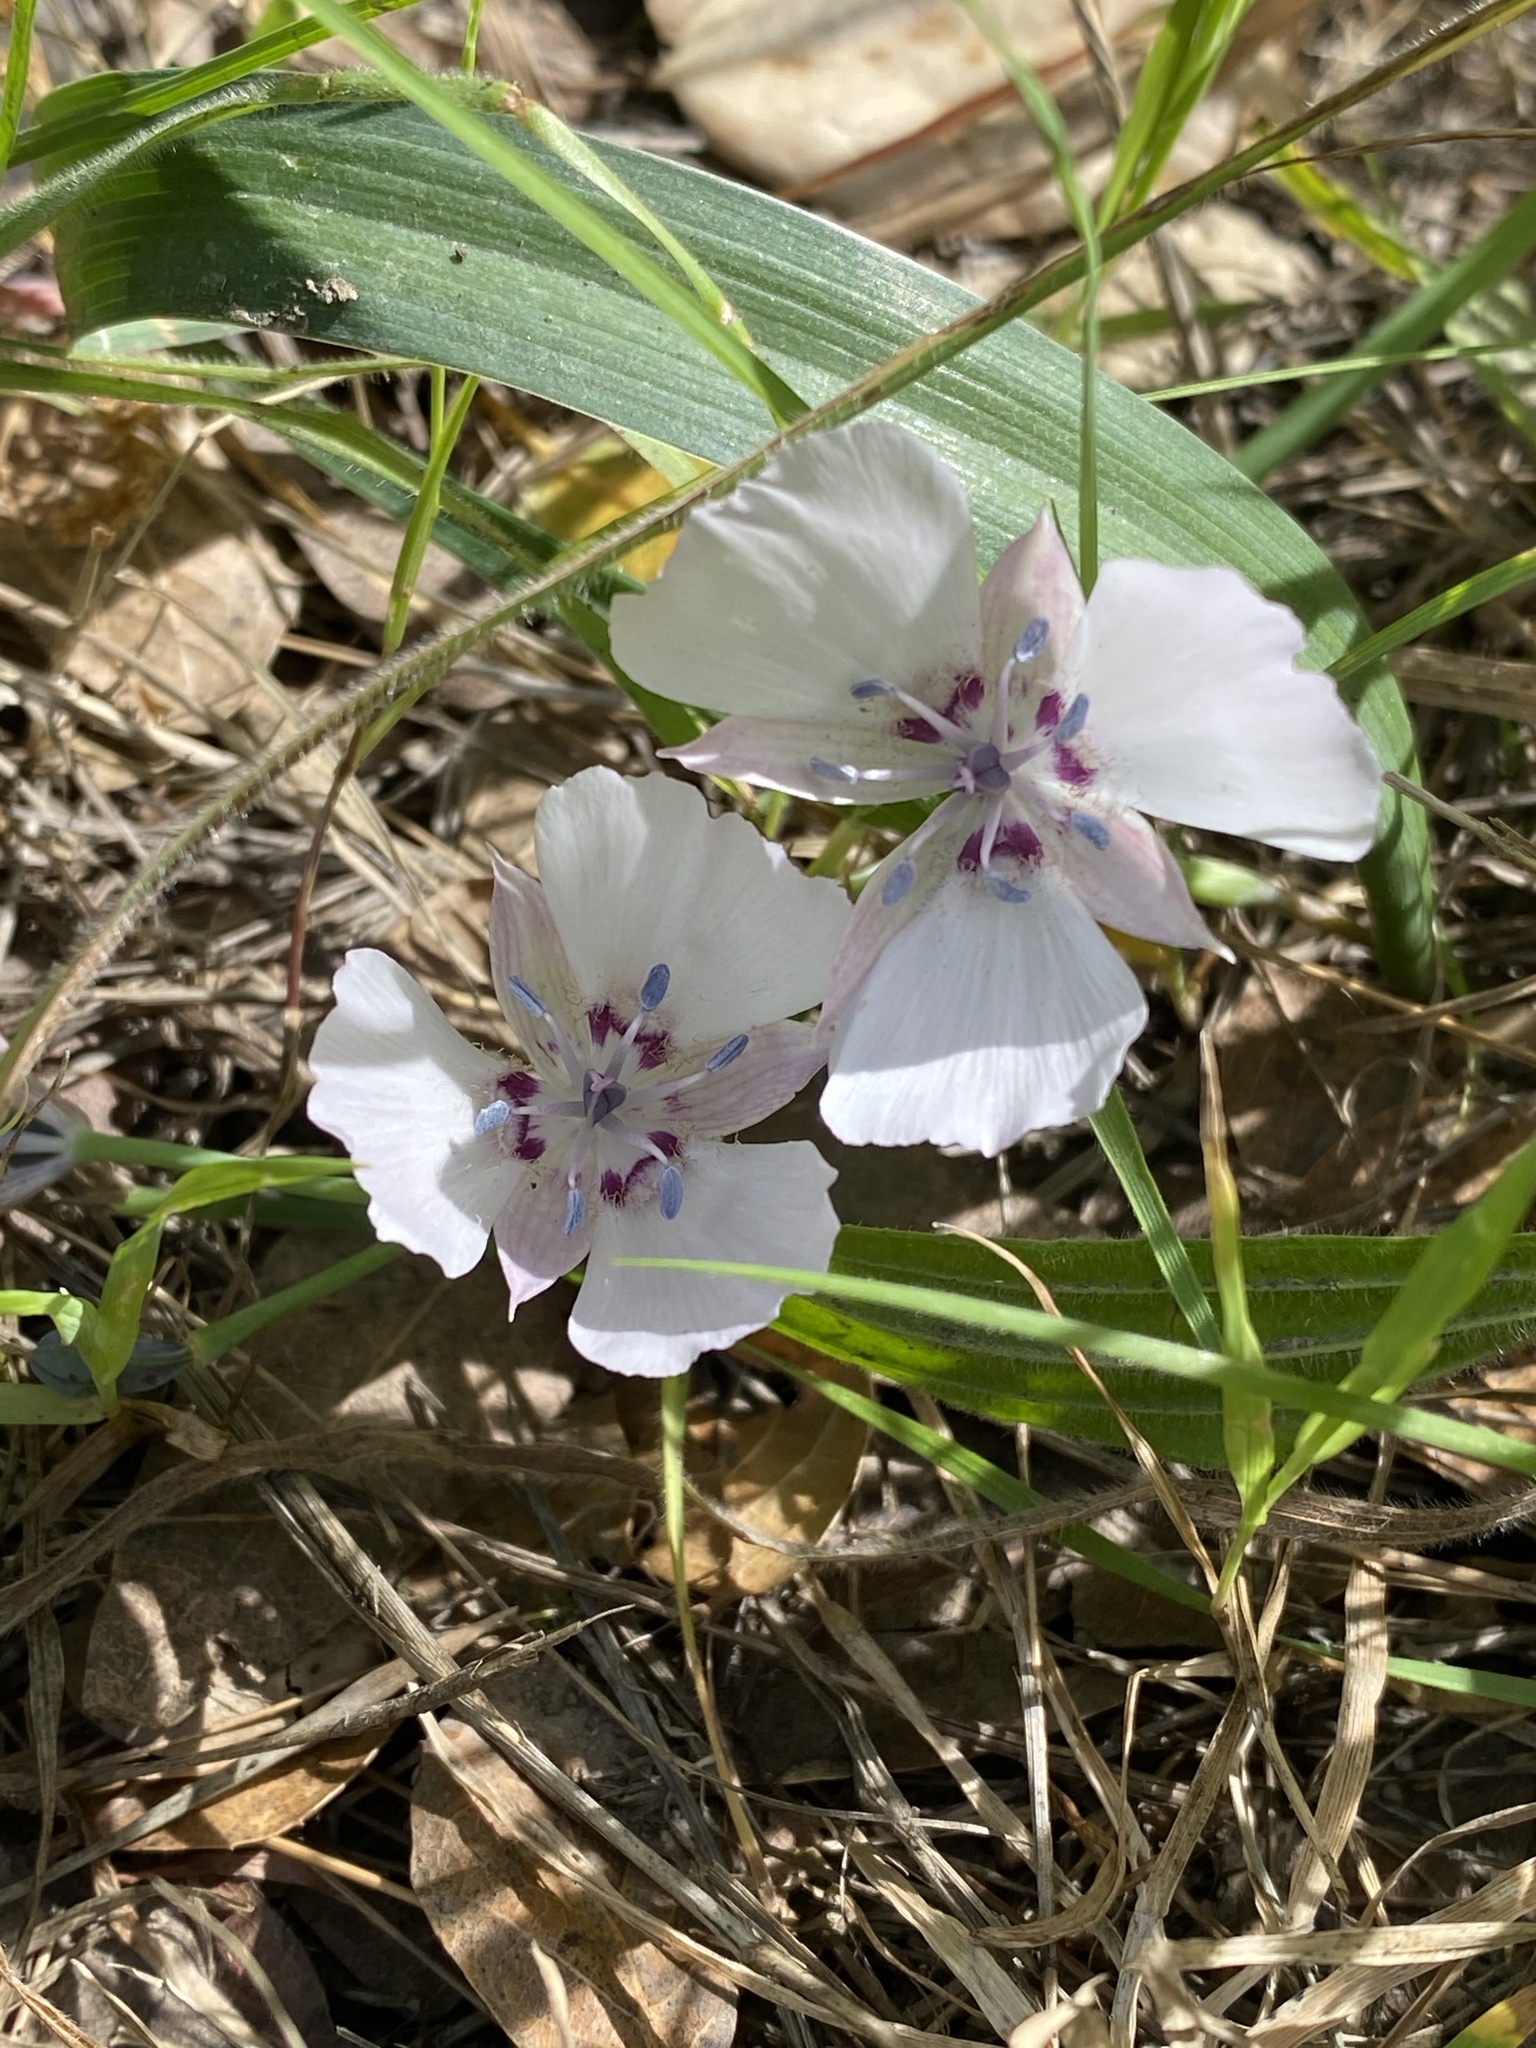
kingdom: Plantae
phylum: Tracheophyta
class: Liliopsida
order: Liliales
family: Liliaceae
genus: Calochortus
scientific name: Calochortus umbellatus
